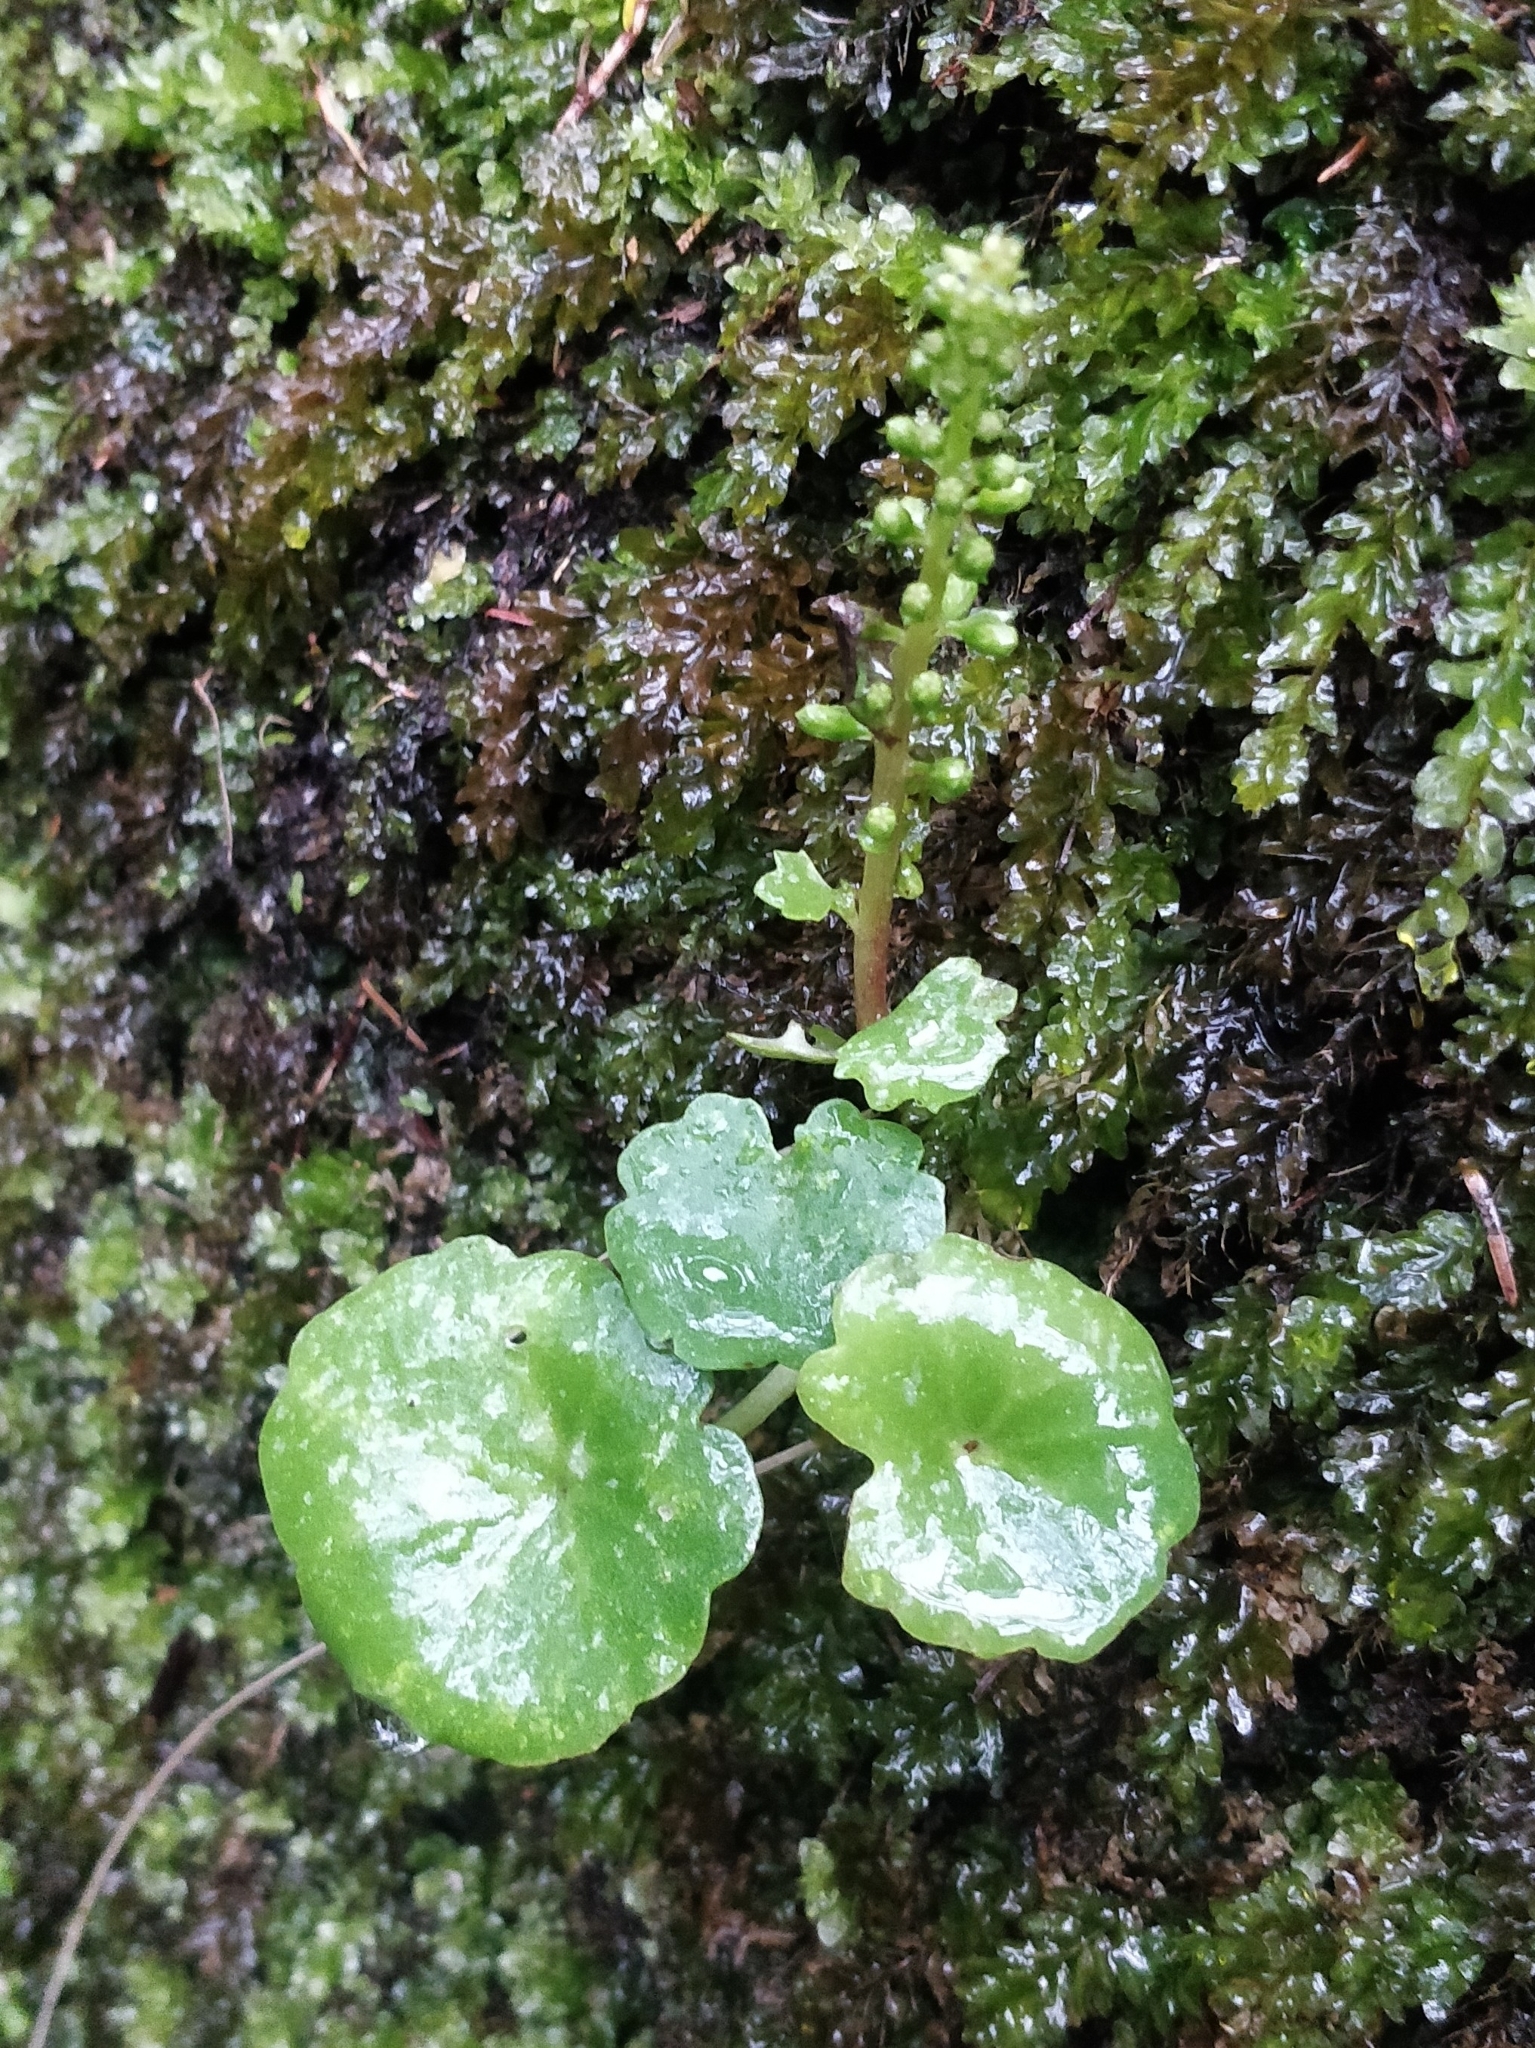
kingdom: Plantae
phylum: Tracheophyta
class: Magnoliopsida
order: Saxifragales
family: Crassulaceae
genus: Umbilicus
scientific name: Umbilicus rupestris
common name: Navelwort
